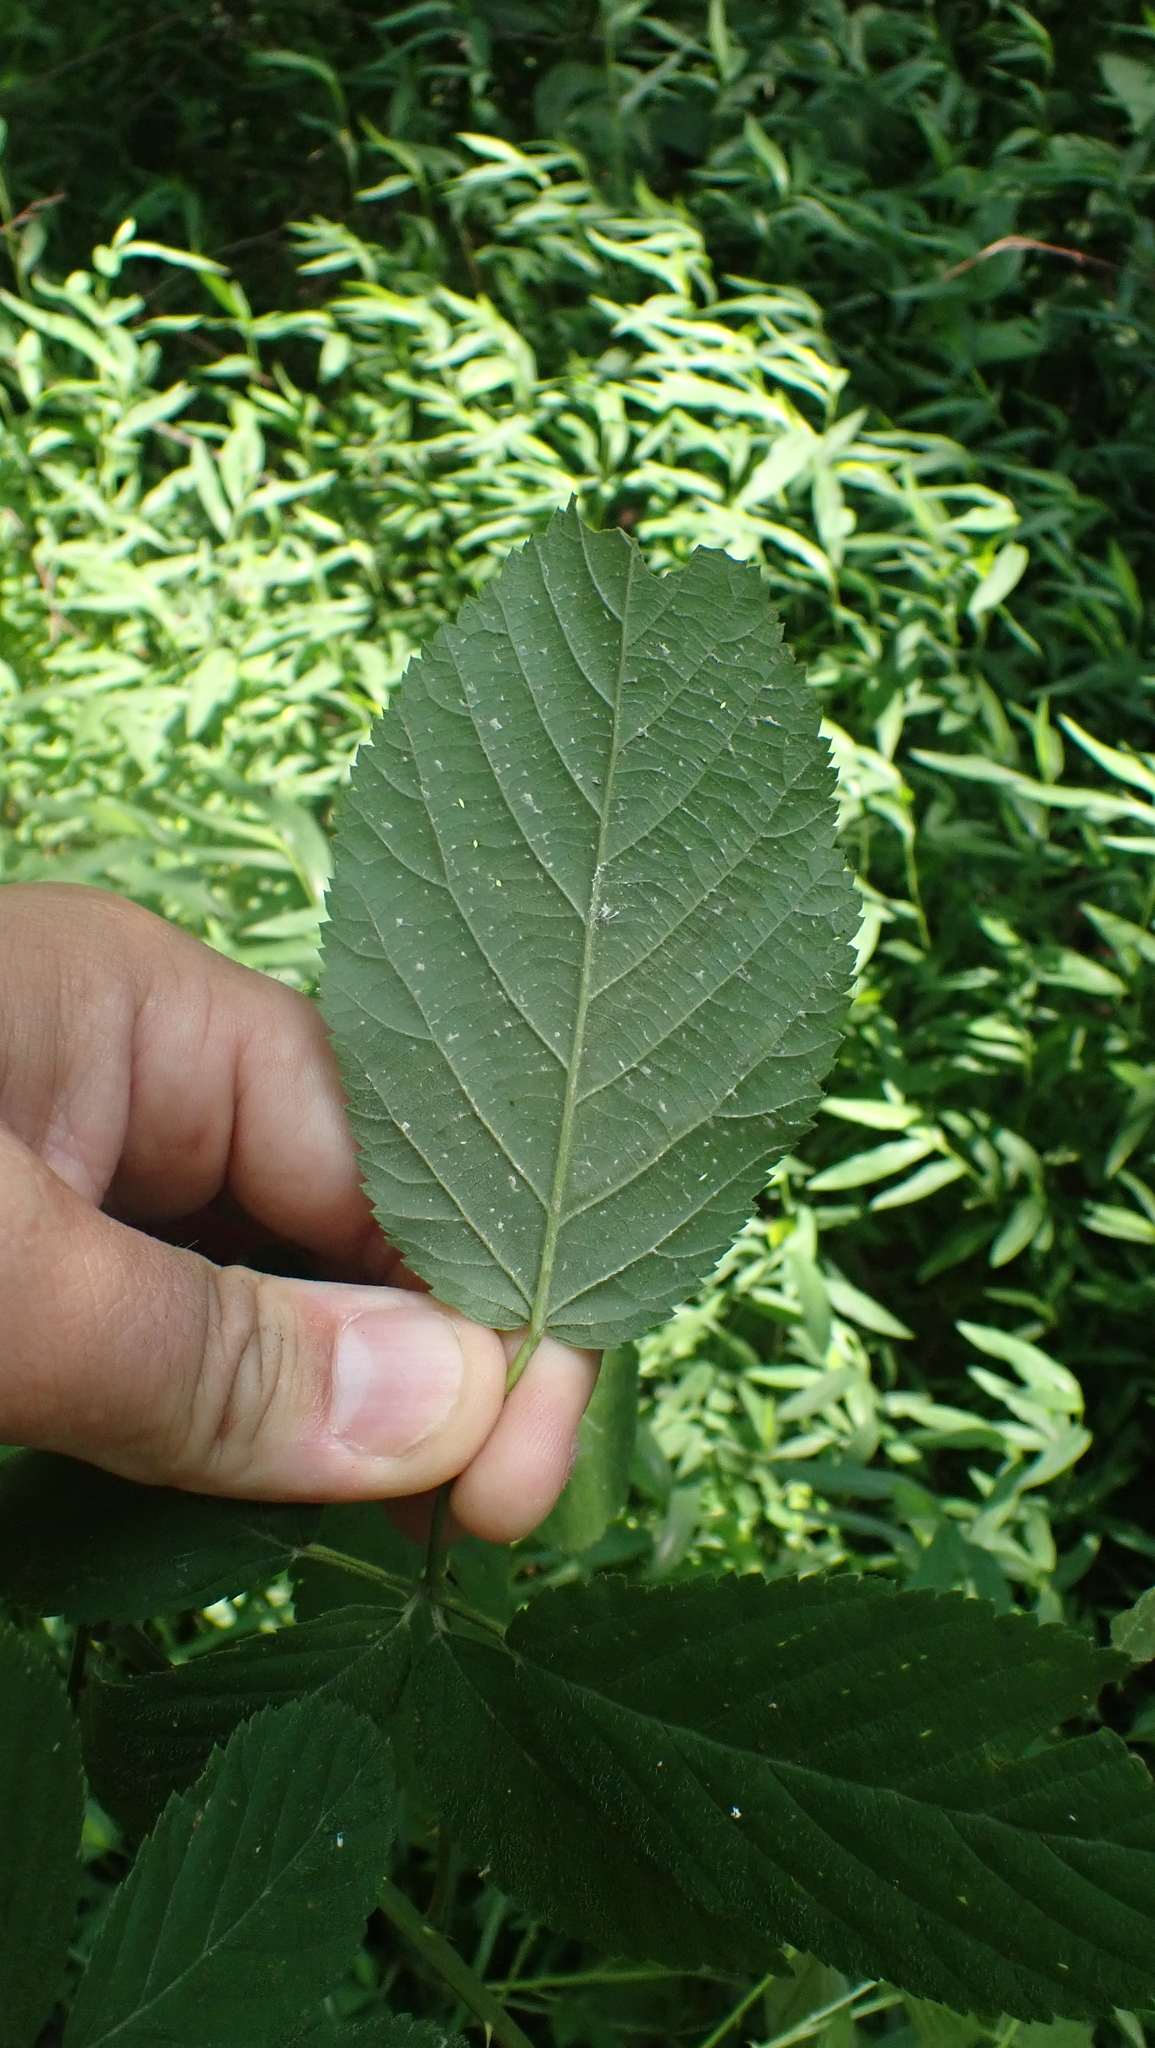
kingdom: Animalia
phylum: Arthropoda
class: Insecta
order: Diptera
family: Agromyzidae
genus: Agromyza
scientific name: Agromyza vockerothi
